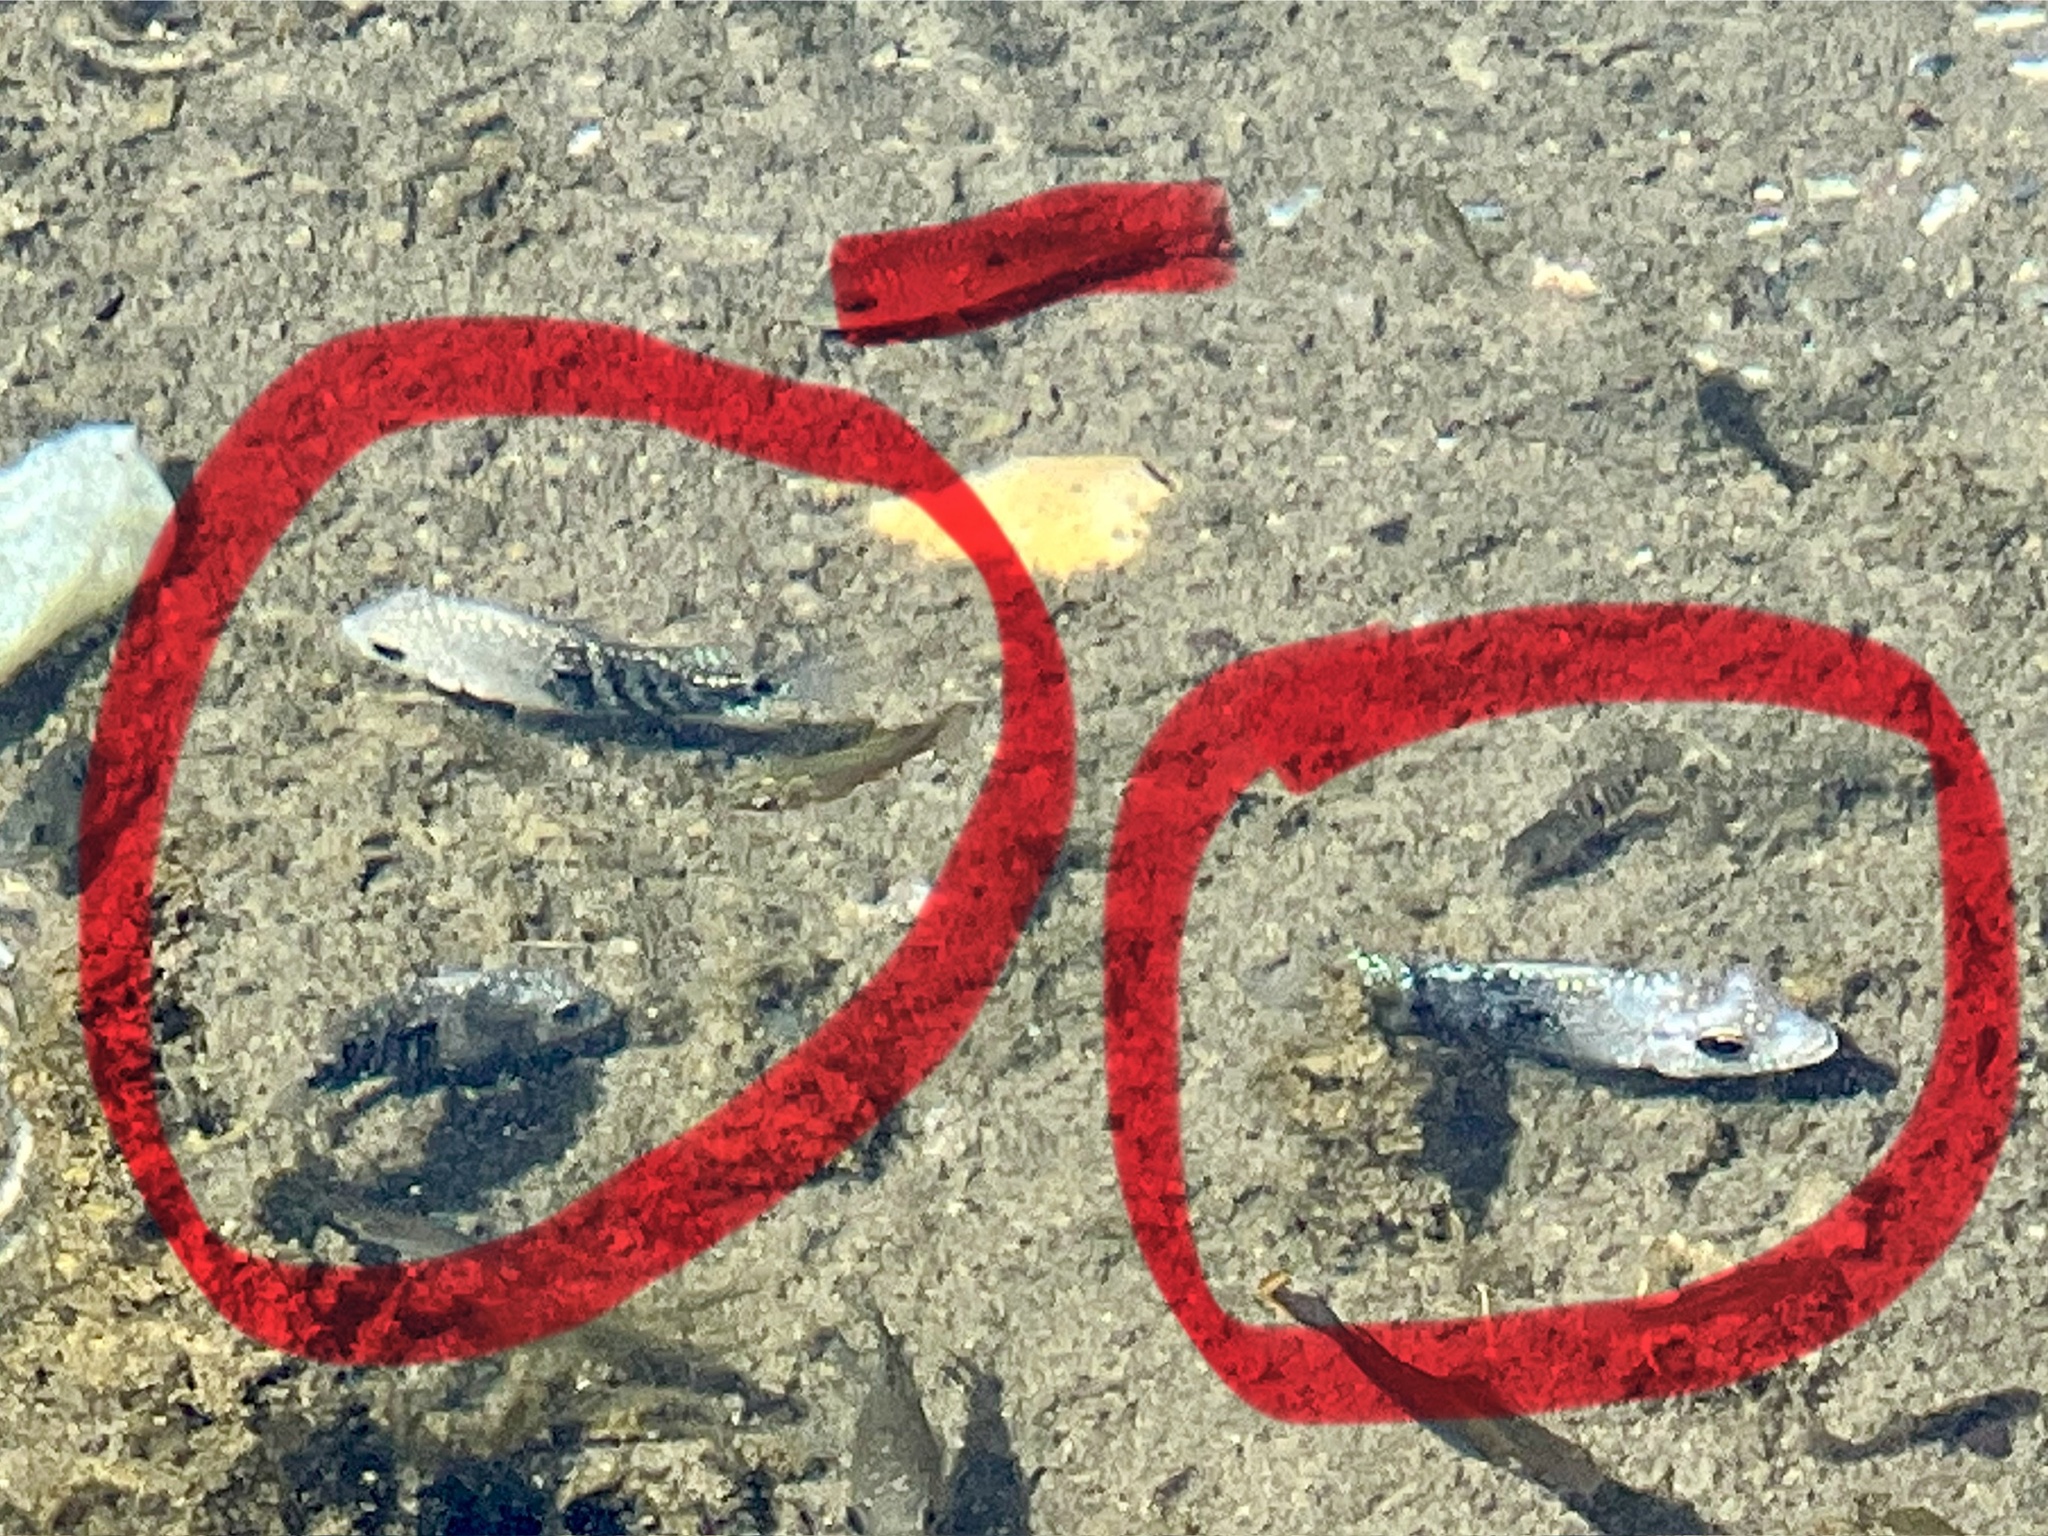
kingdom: Animalia
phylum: Chordata
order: Perciformes
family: Cichlidae
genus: Herichthys
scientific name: Herichthys cyanoguttatus
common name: Rio grande cichlid
